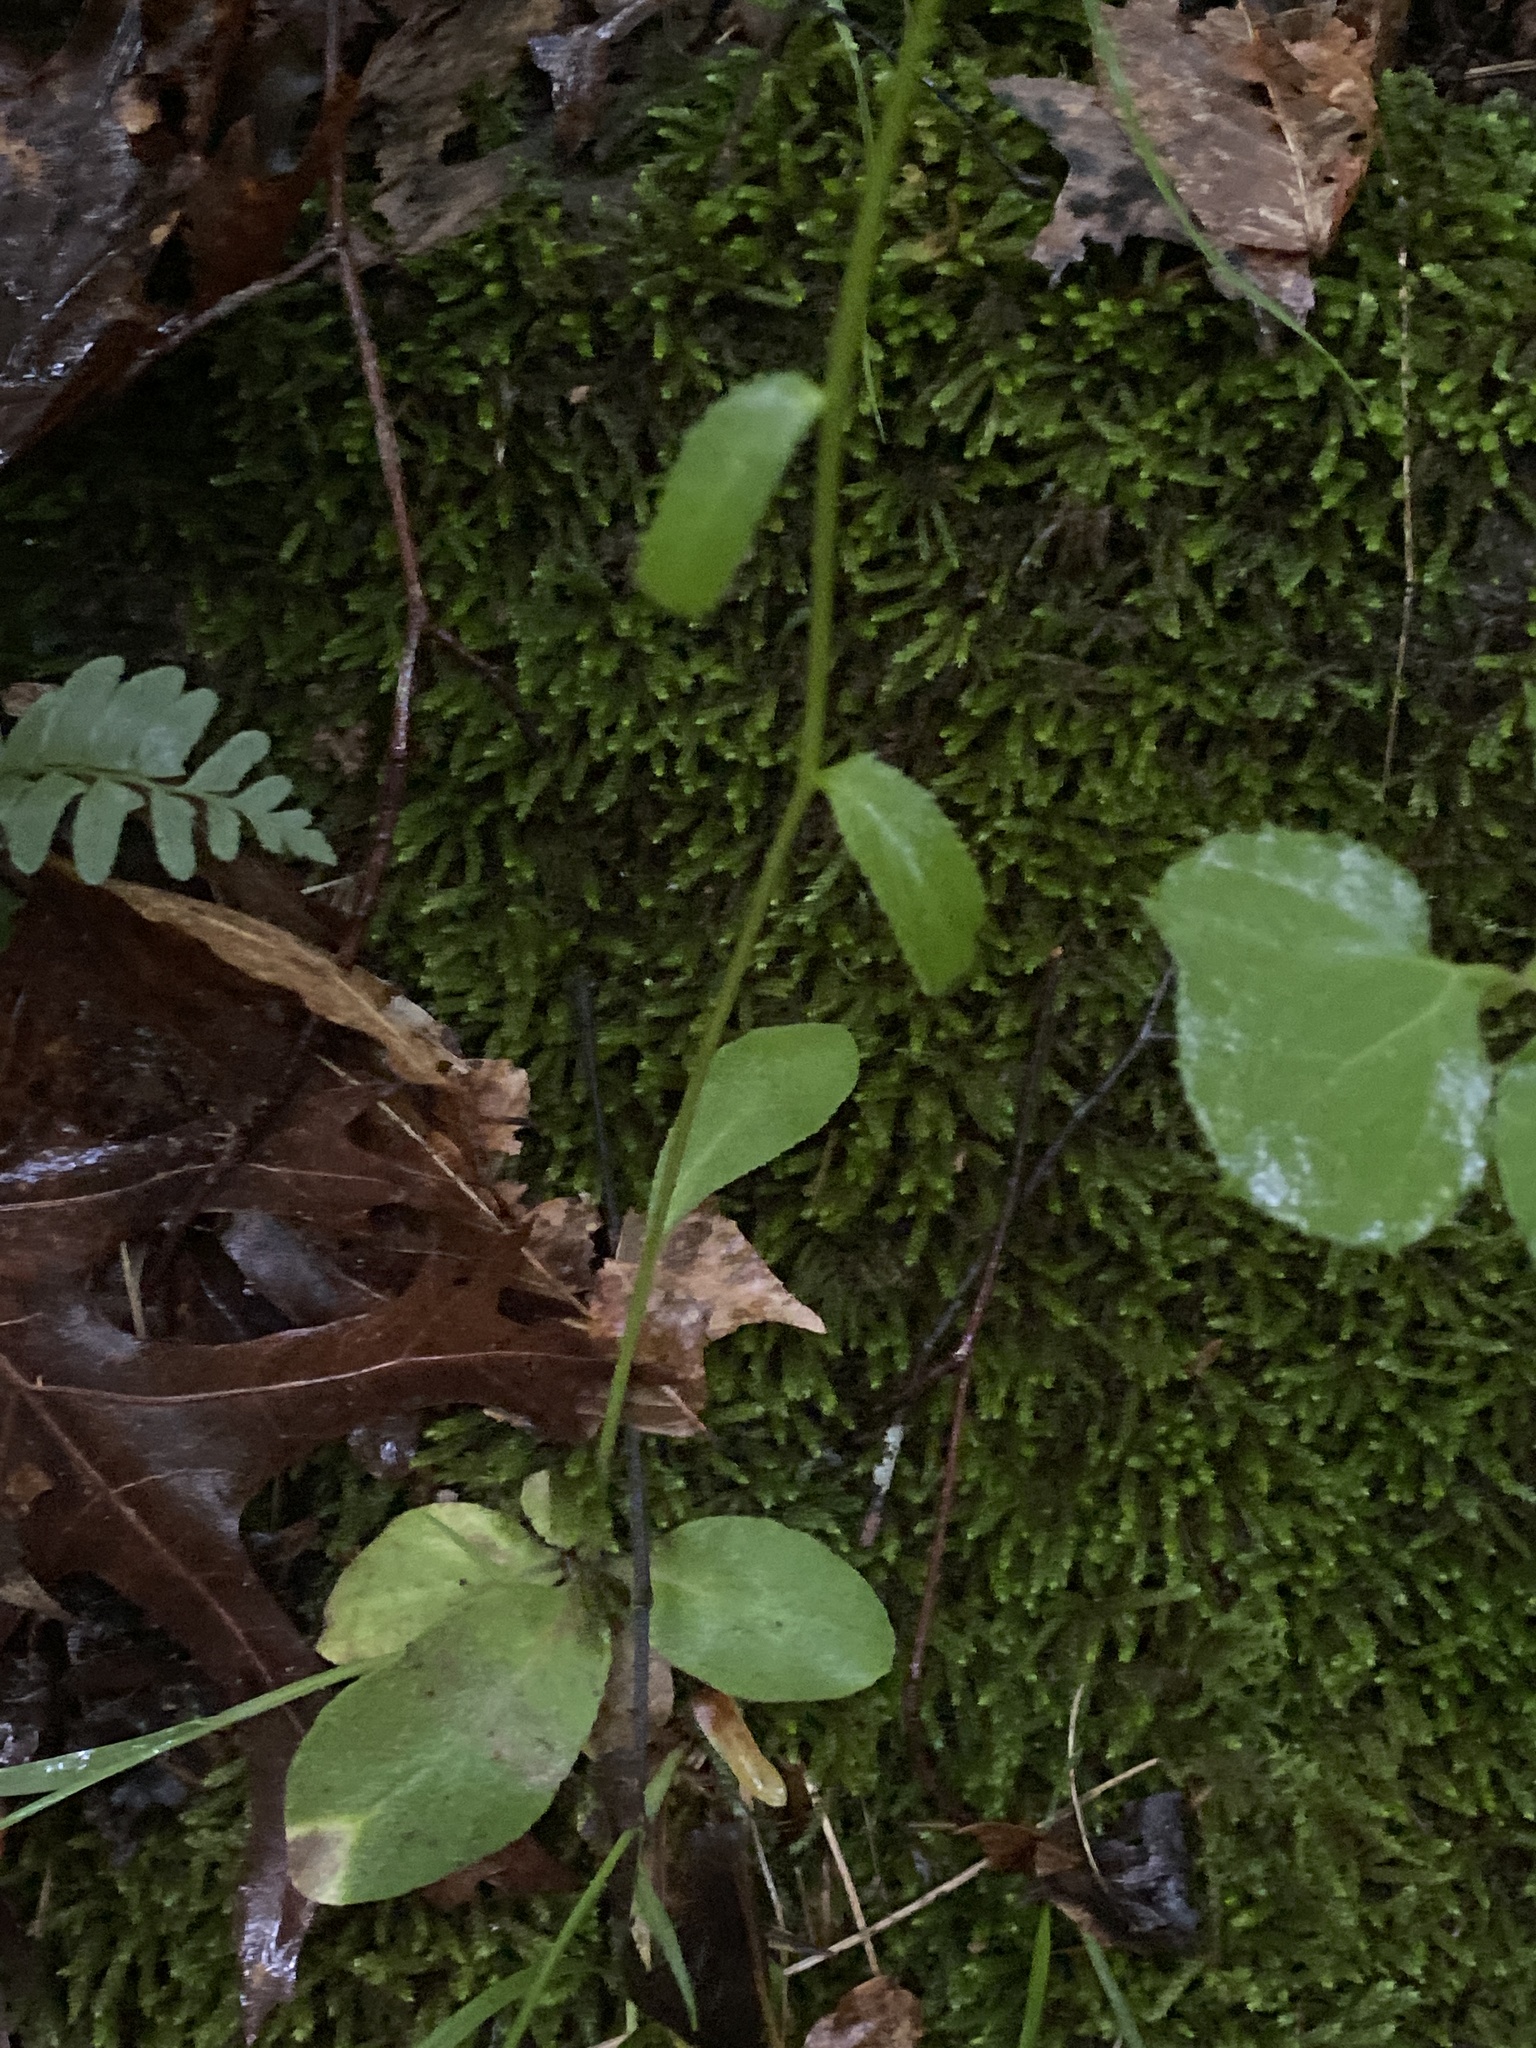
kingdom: Plantae
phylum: Tracheophyta
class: Magnoliopsida
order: Asterales
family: Campanulaceae
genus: Lobelia
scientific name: Lobelia spicata
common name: Pale-spike lobelia
